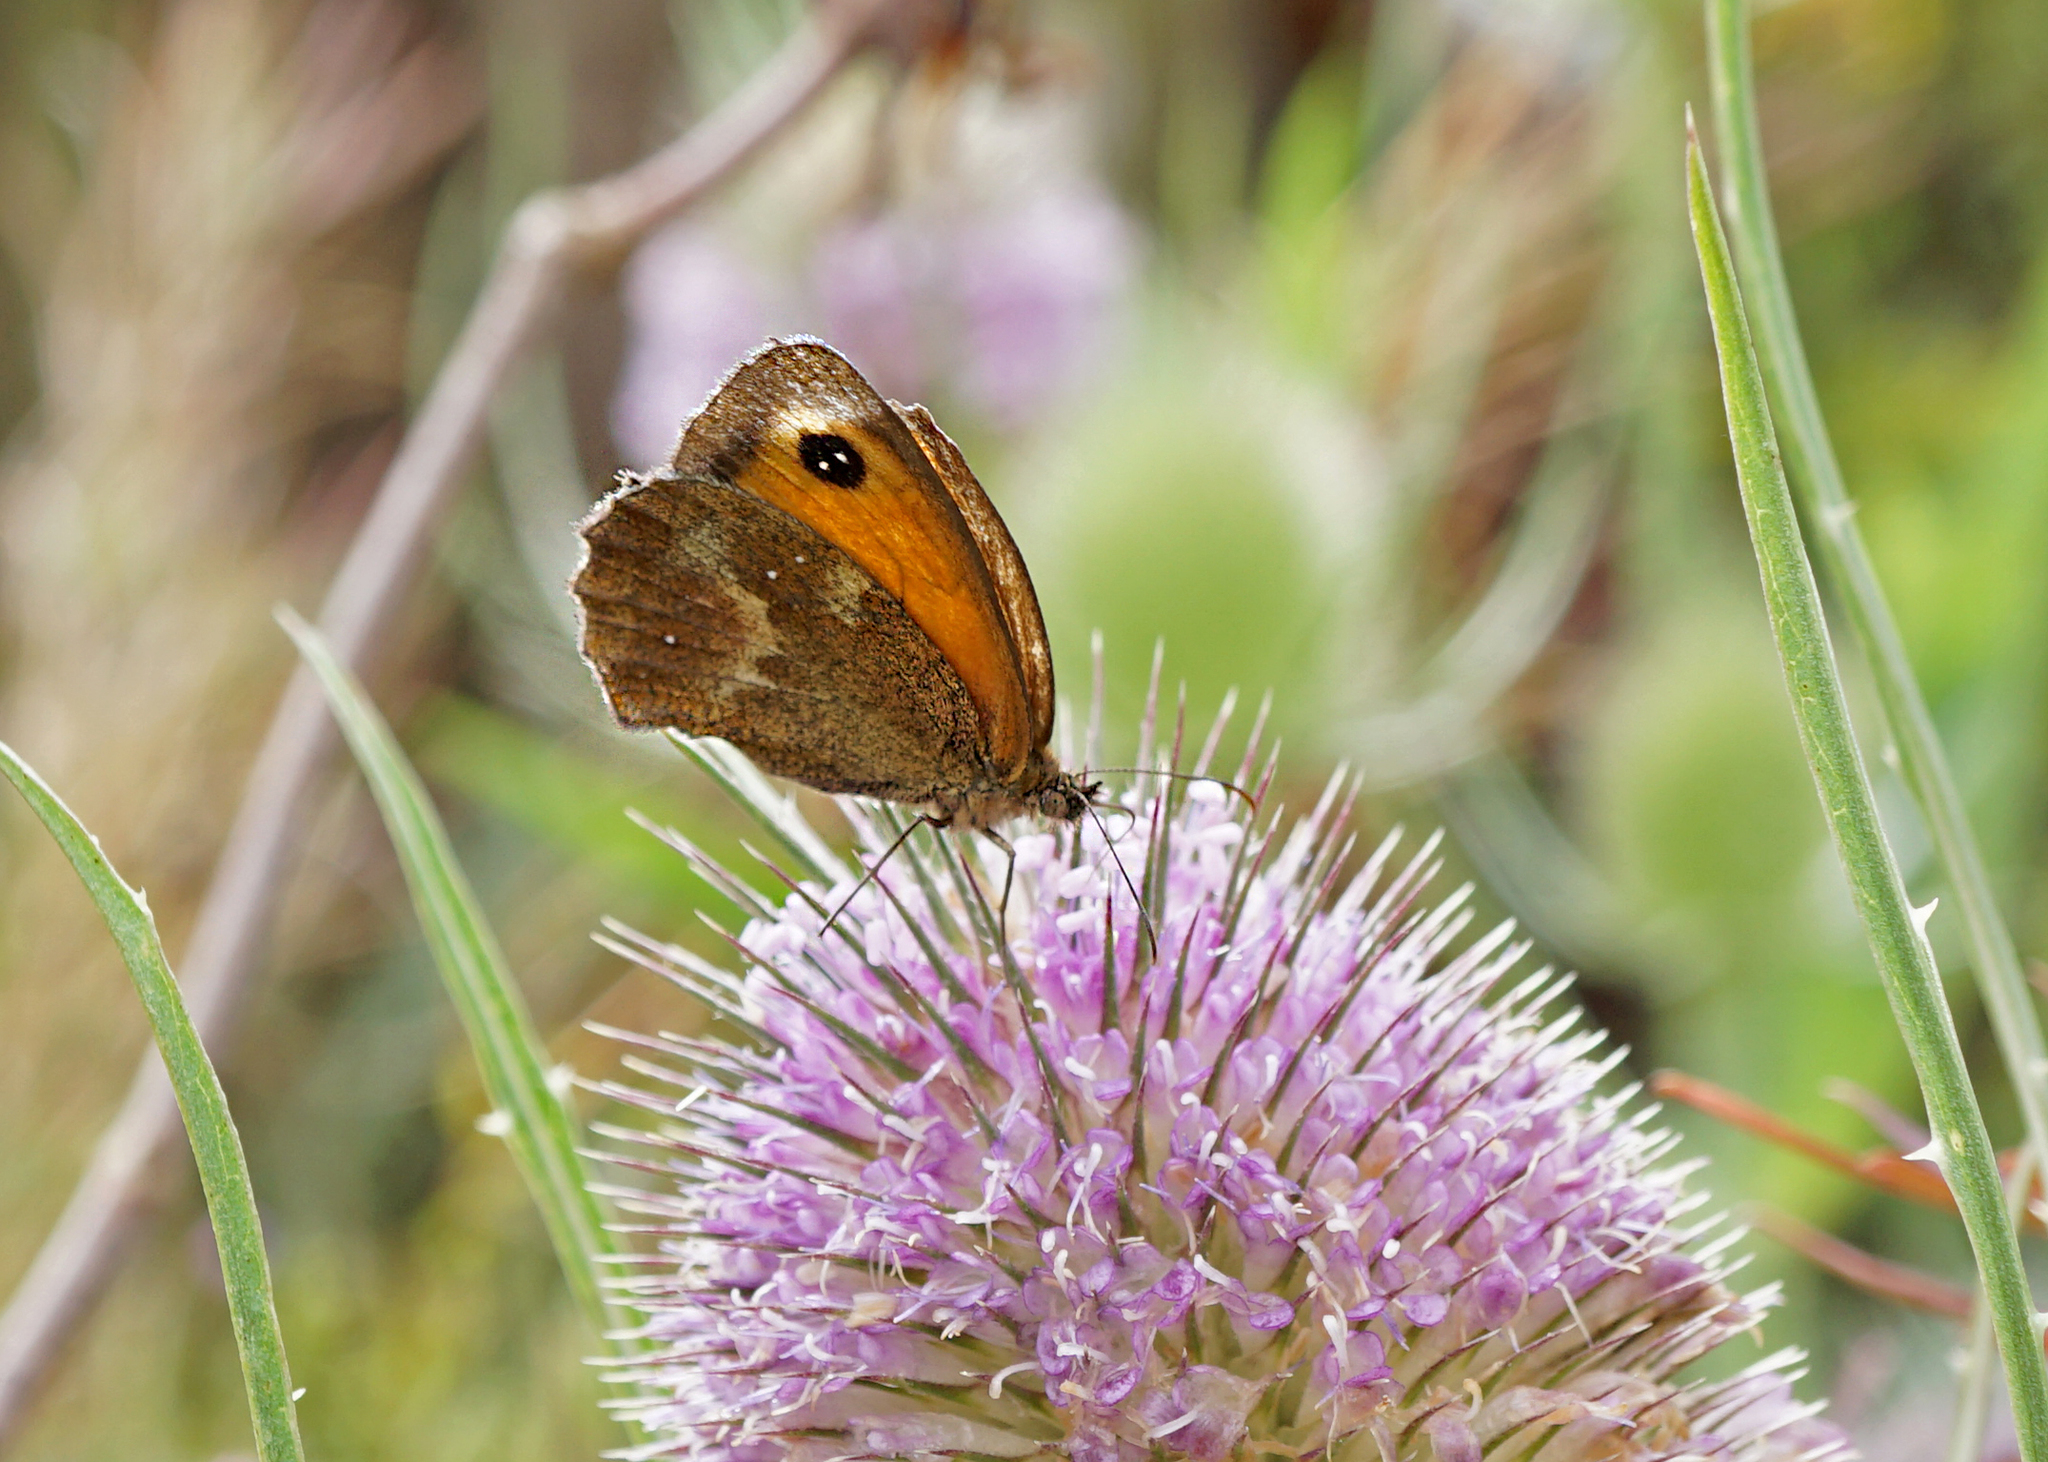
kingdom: Animalia
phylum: Arthropoda
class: Insecta
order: Lepidoptera
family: Nymphalidae
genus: Pyronia
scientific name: Pyronia tithonus
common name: Gatekeeper
